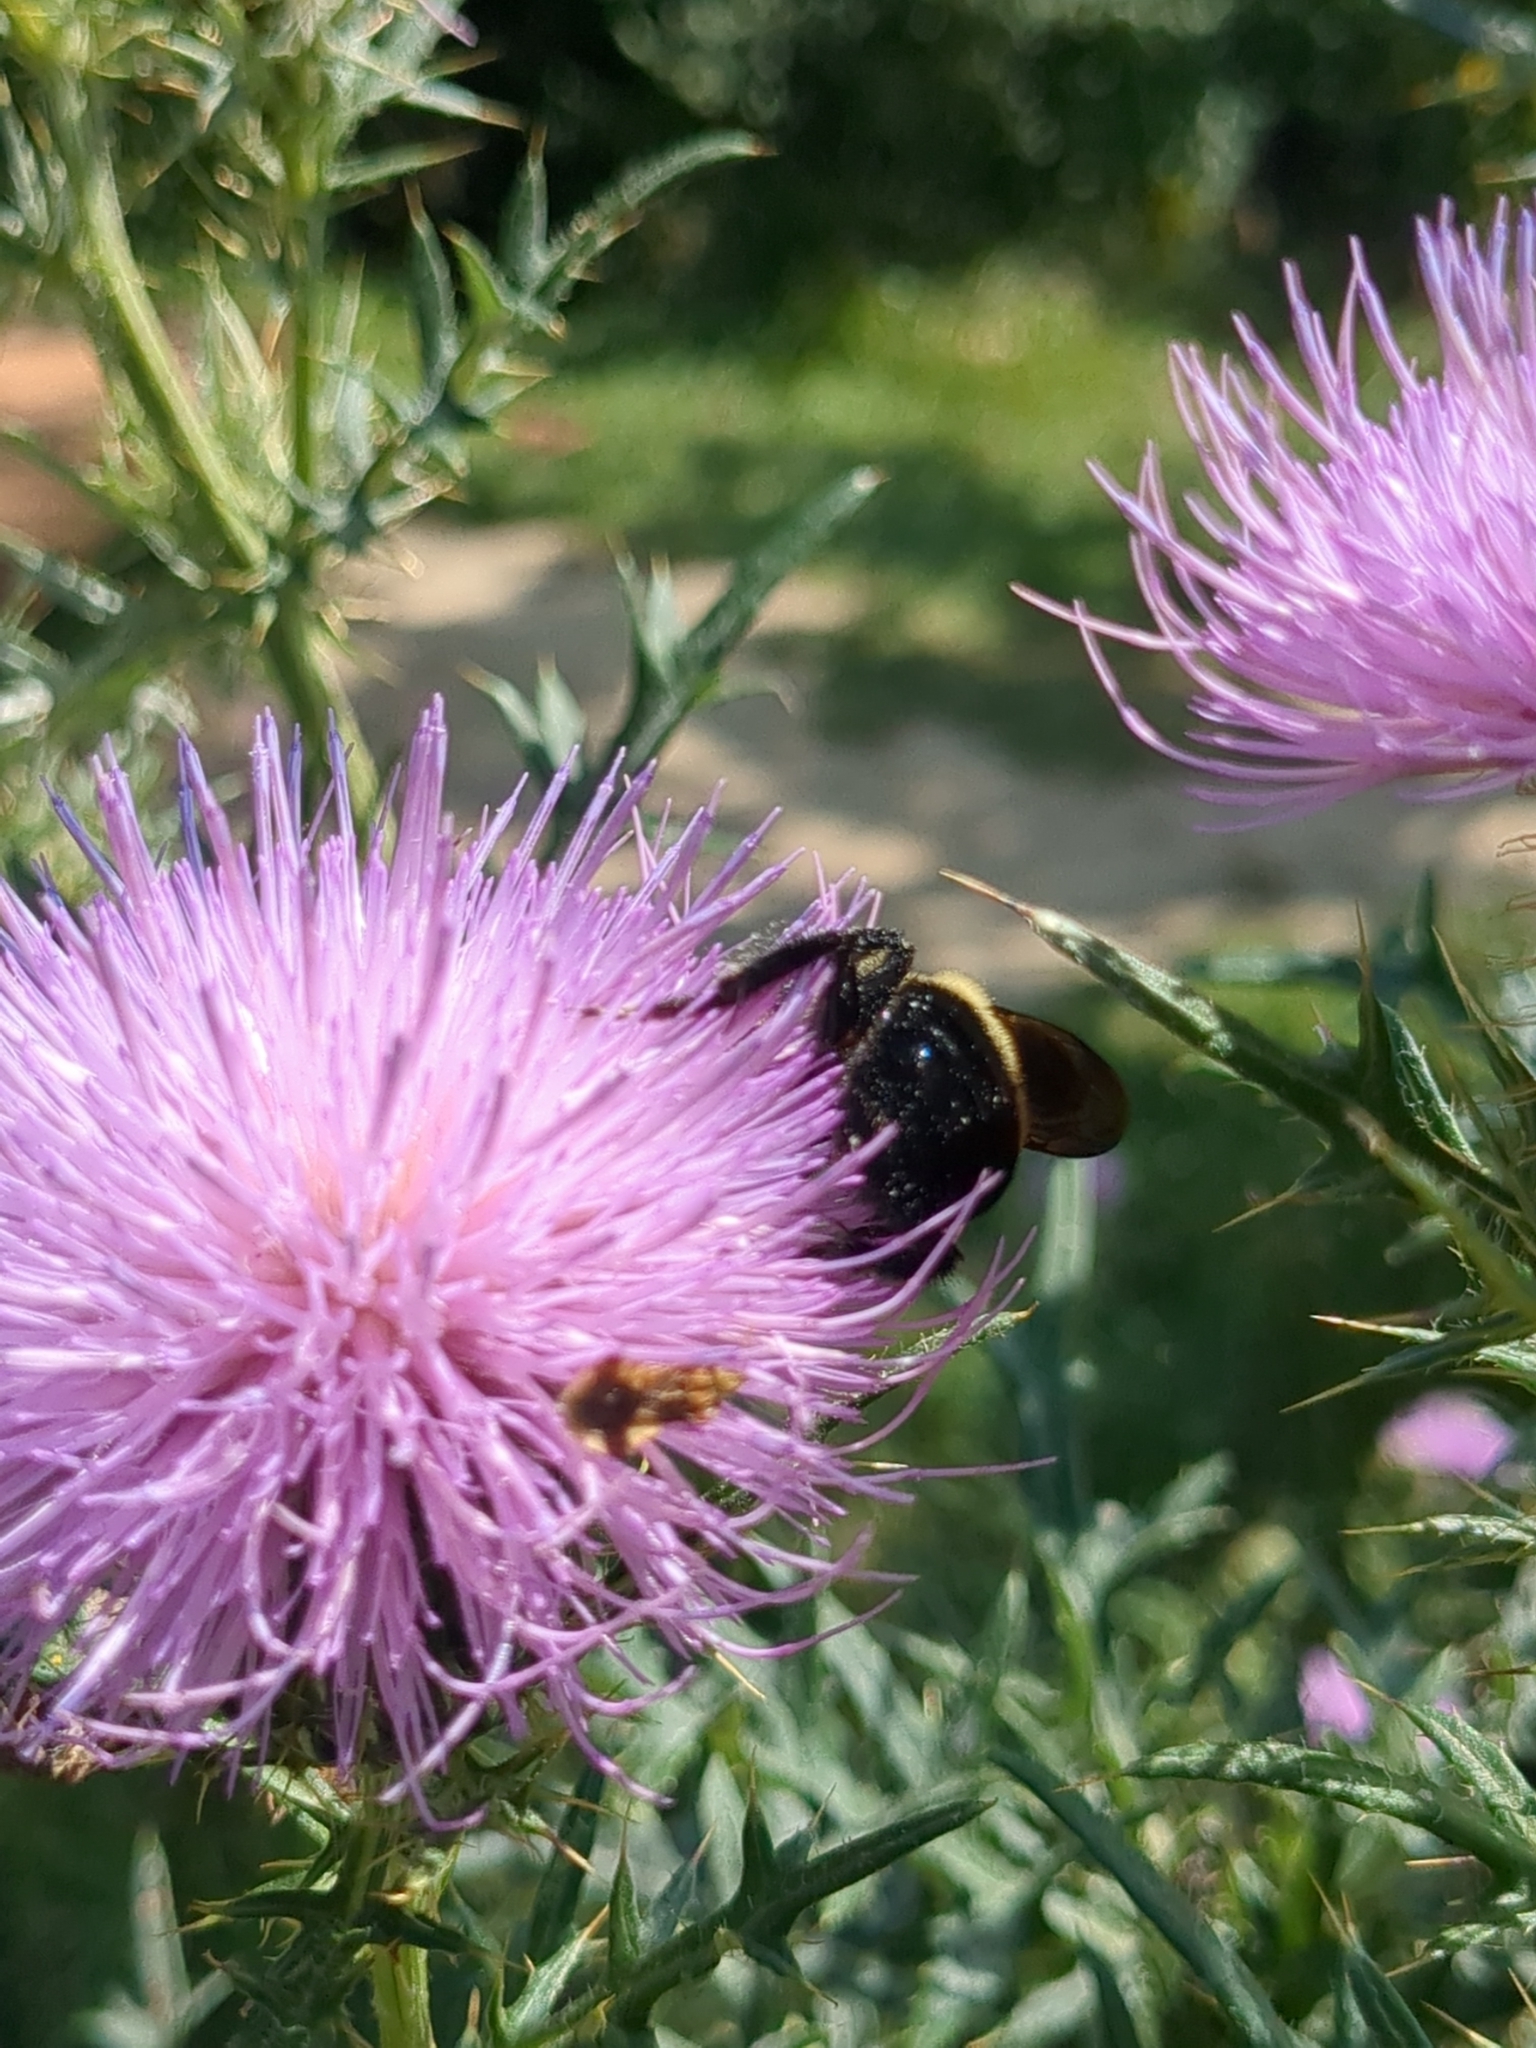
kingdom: Animalia
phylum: Arthropoda
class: Insecta
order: Hymenoptera
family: Apidae
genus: Bombus
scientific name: Bombus griseocollis
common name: Brown-belted bumble bee
